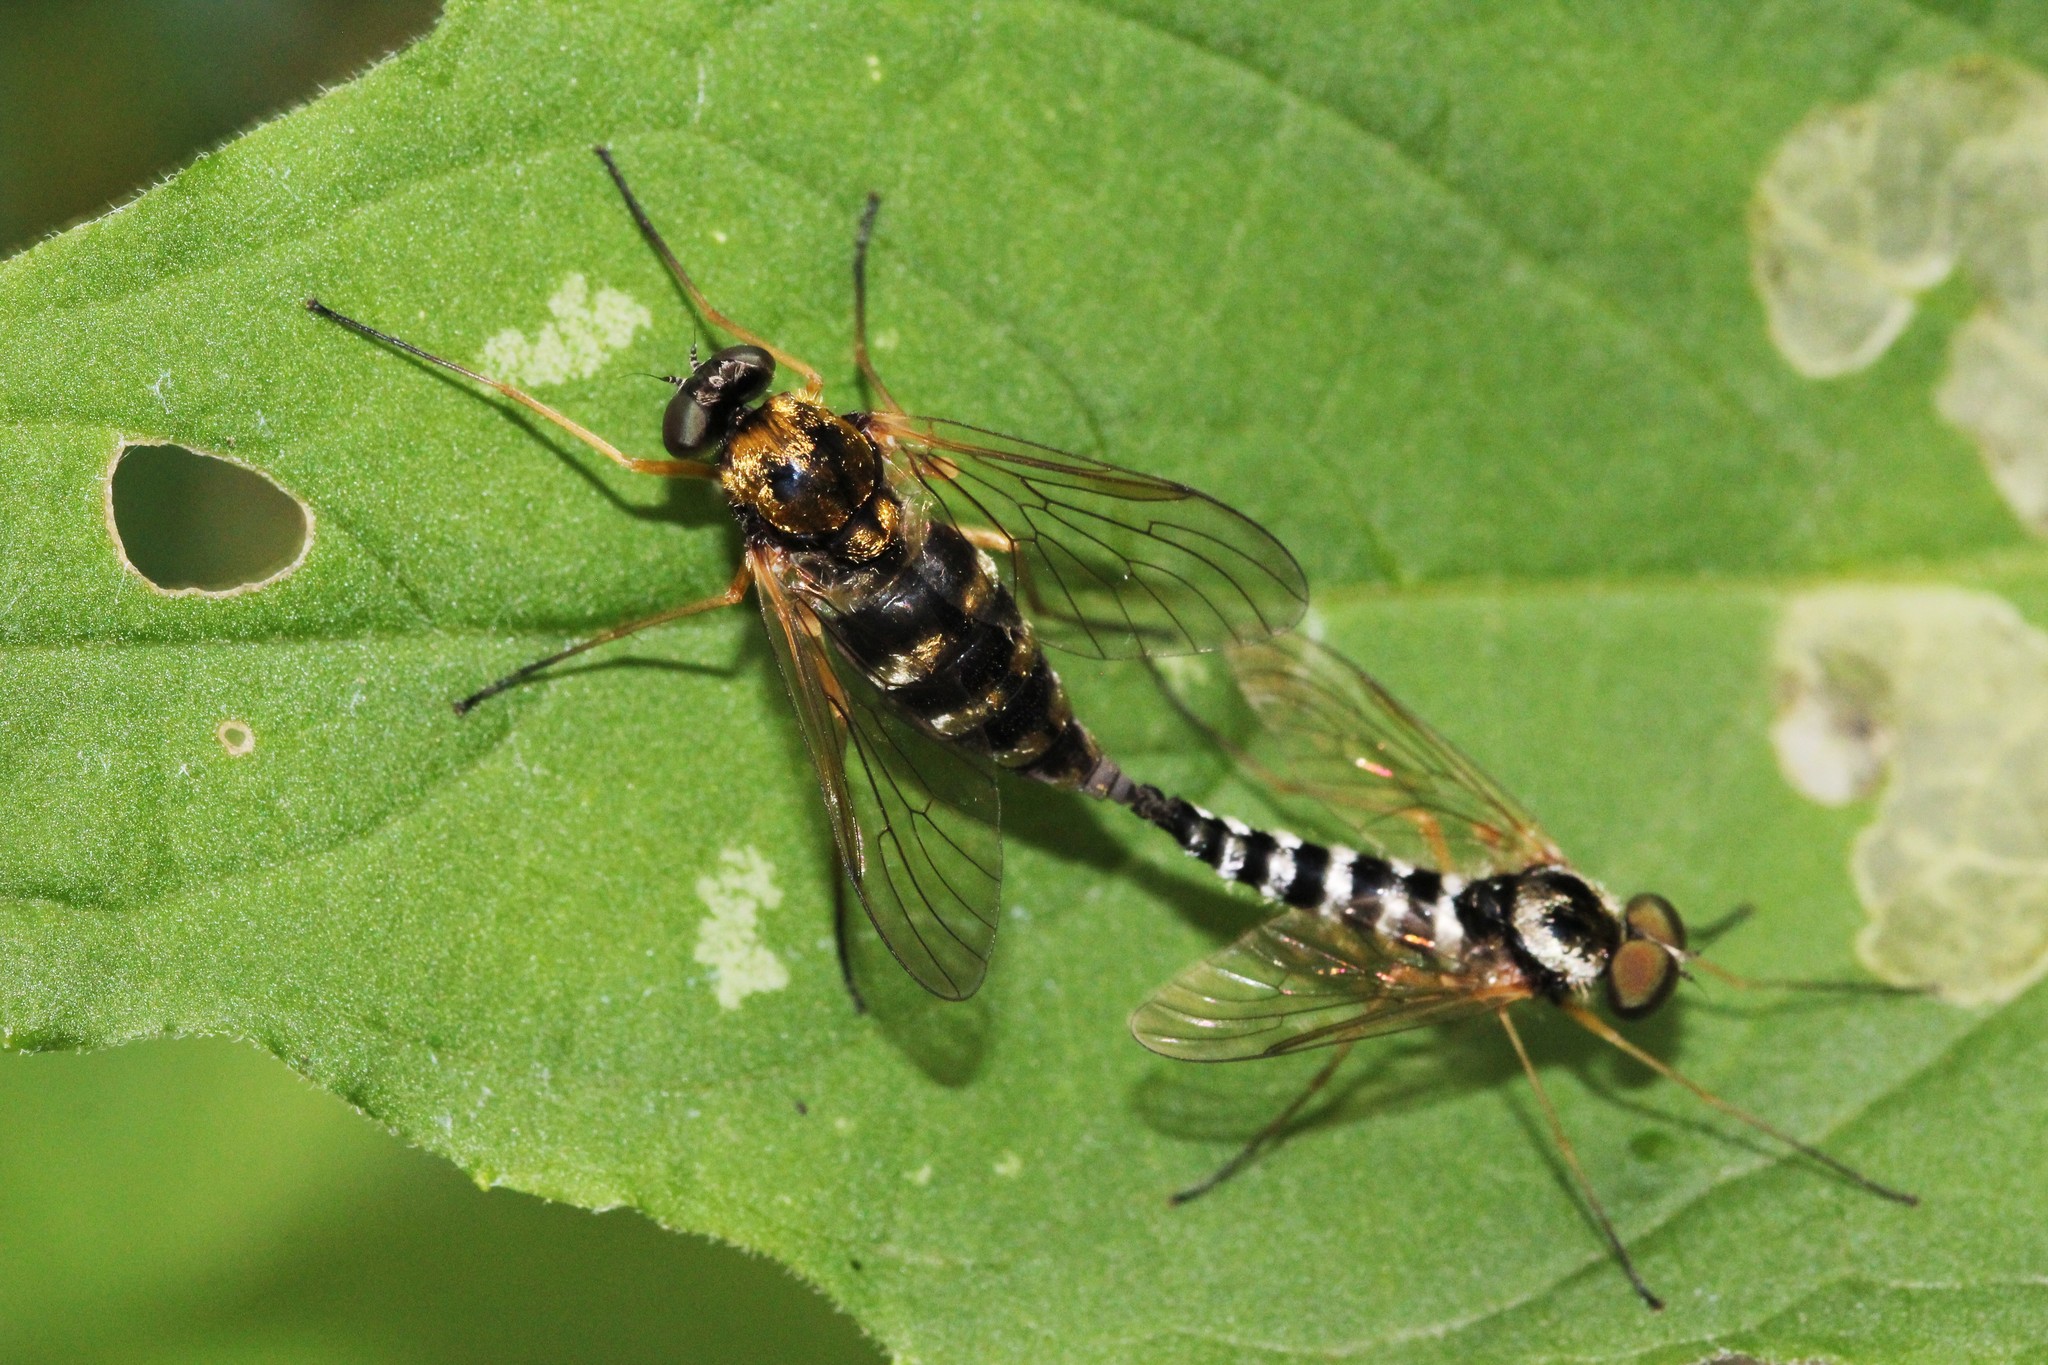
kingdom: Animalia
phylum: Arthropoda
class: Insecta
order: Diptera
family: Rhagionidae
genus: Chrysopilus
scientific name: Chrysopilus ornatus
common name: Ornate snipe fly
